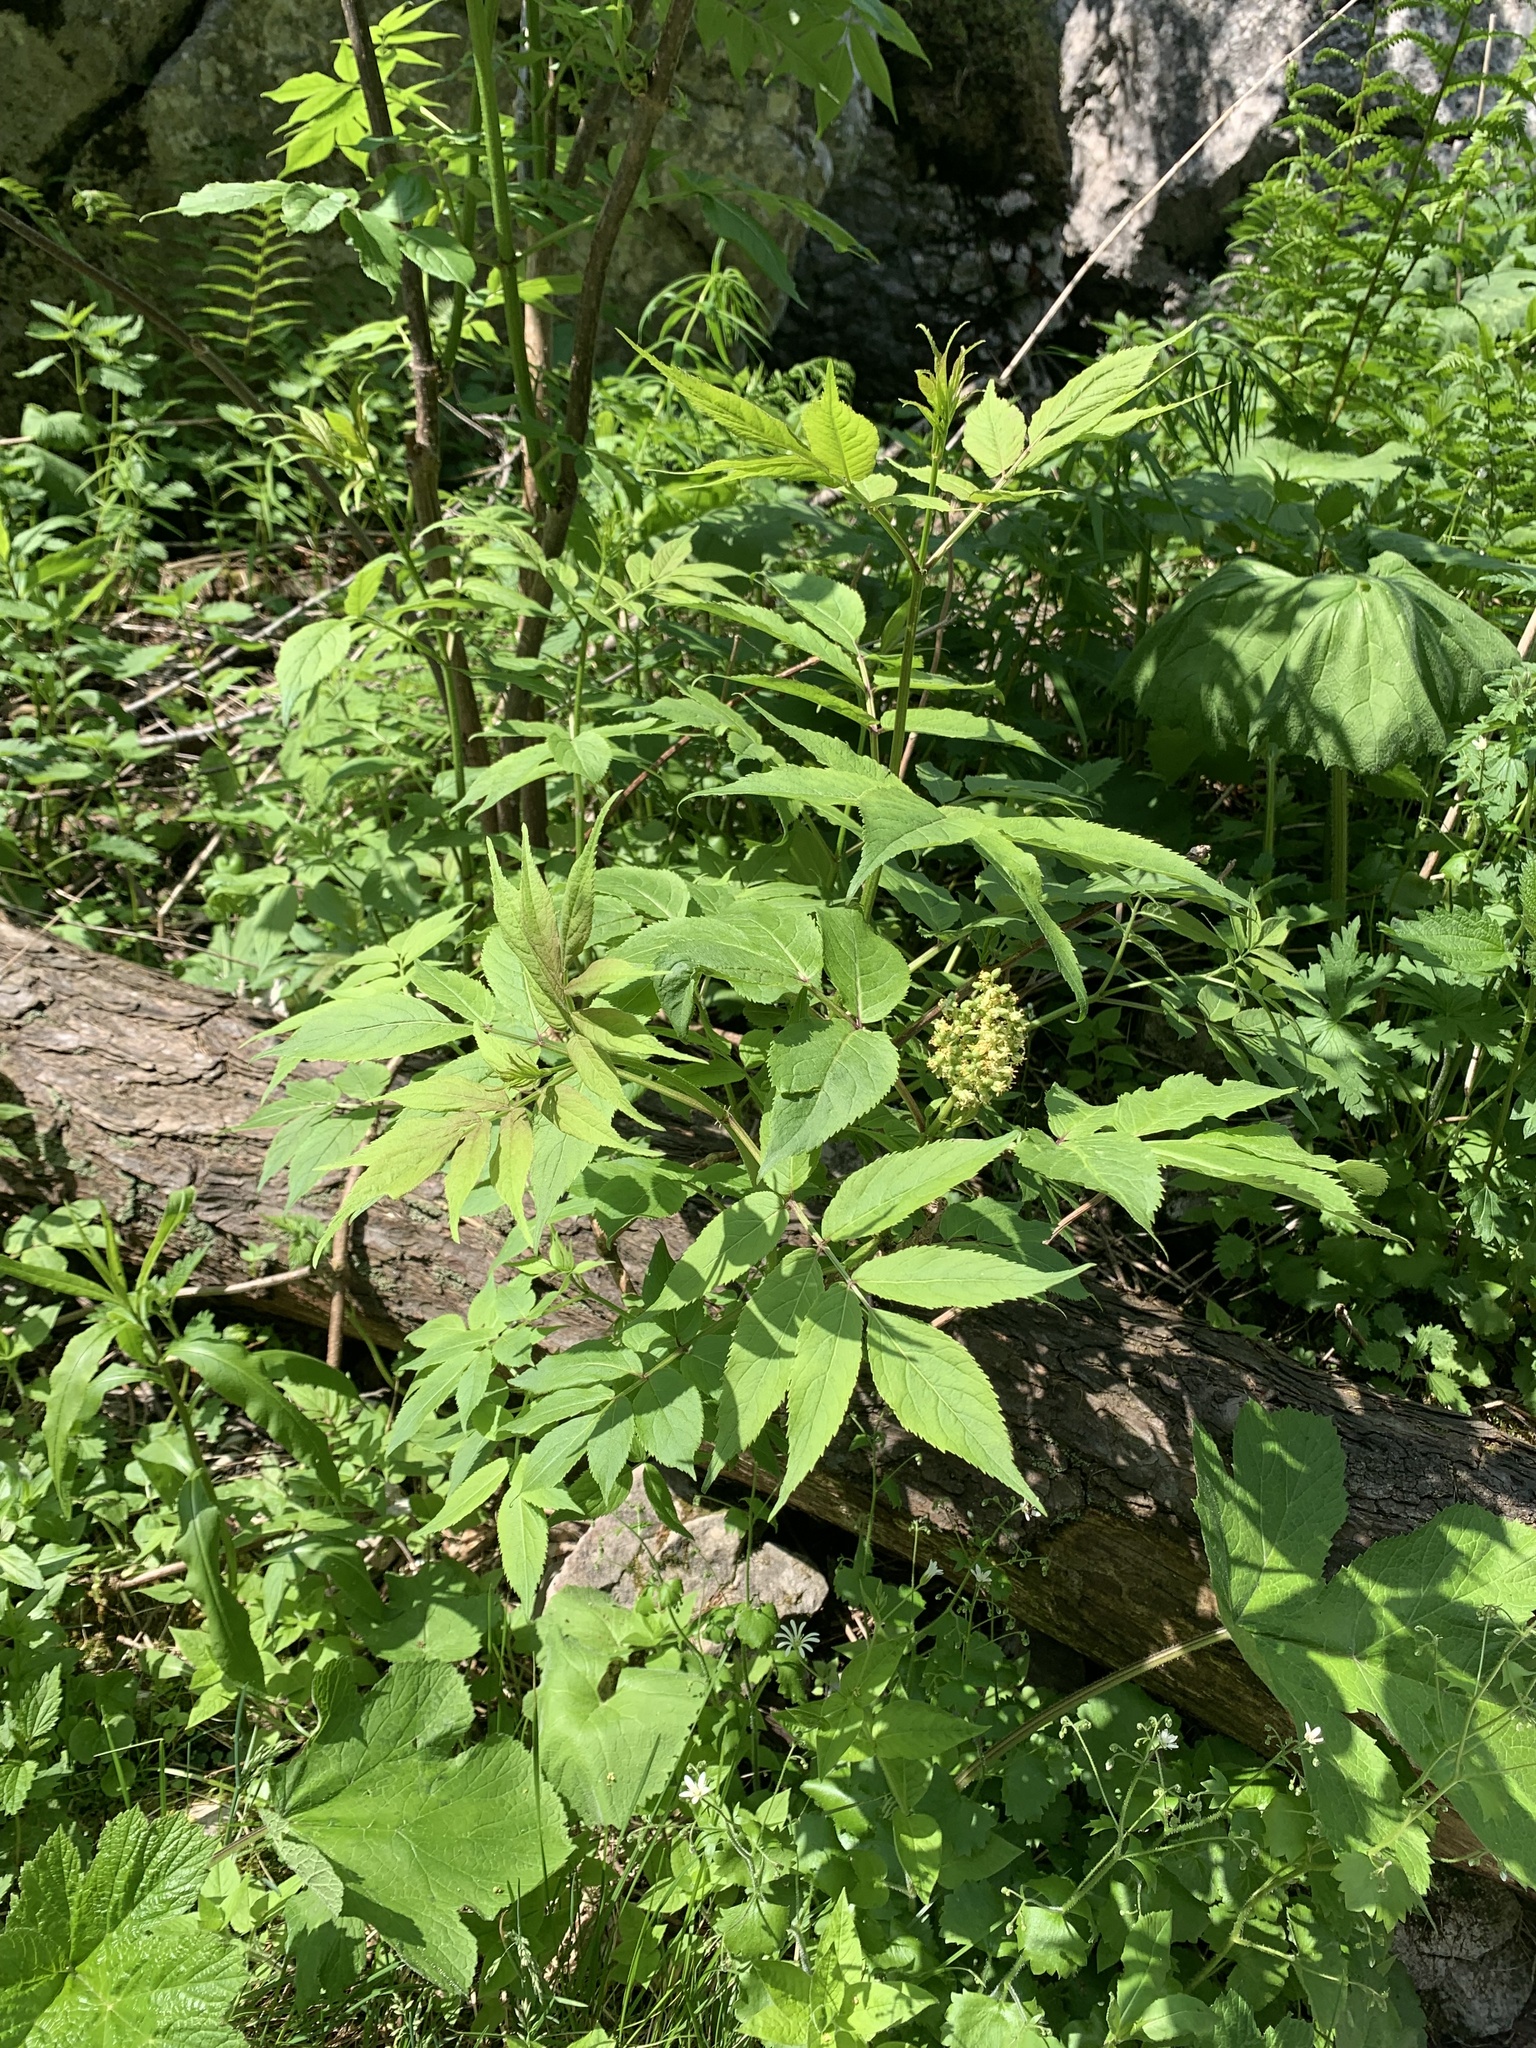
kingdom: Plantae
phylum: Tracheophyta
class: Magnoliopsida
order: Dipsacales
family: Viburnaceae
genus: Sambucus
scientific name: Sambucus racemosa
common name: Red-berried elder
